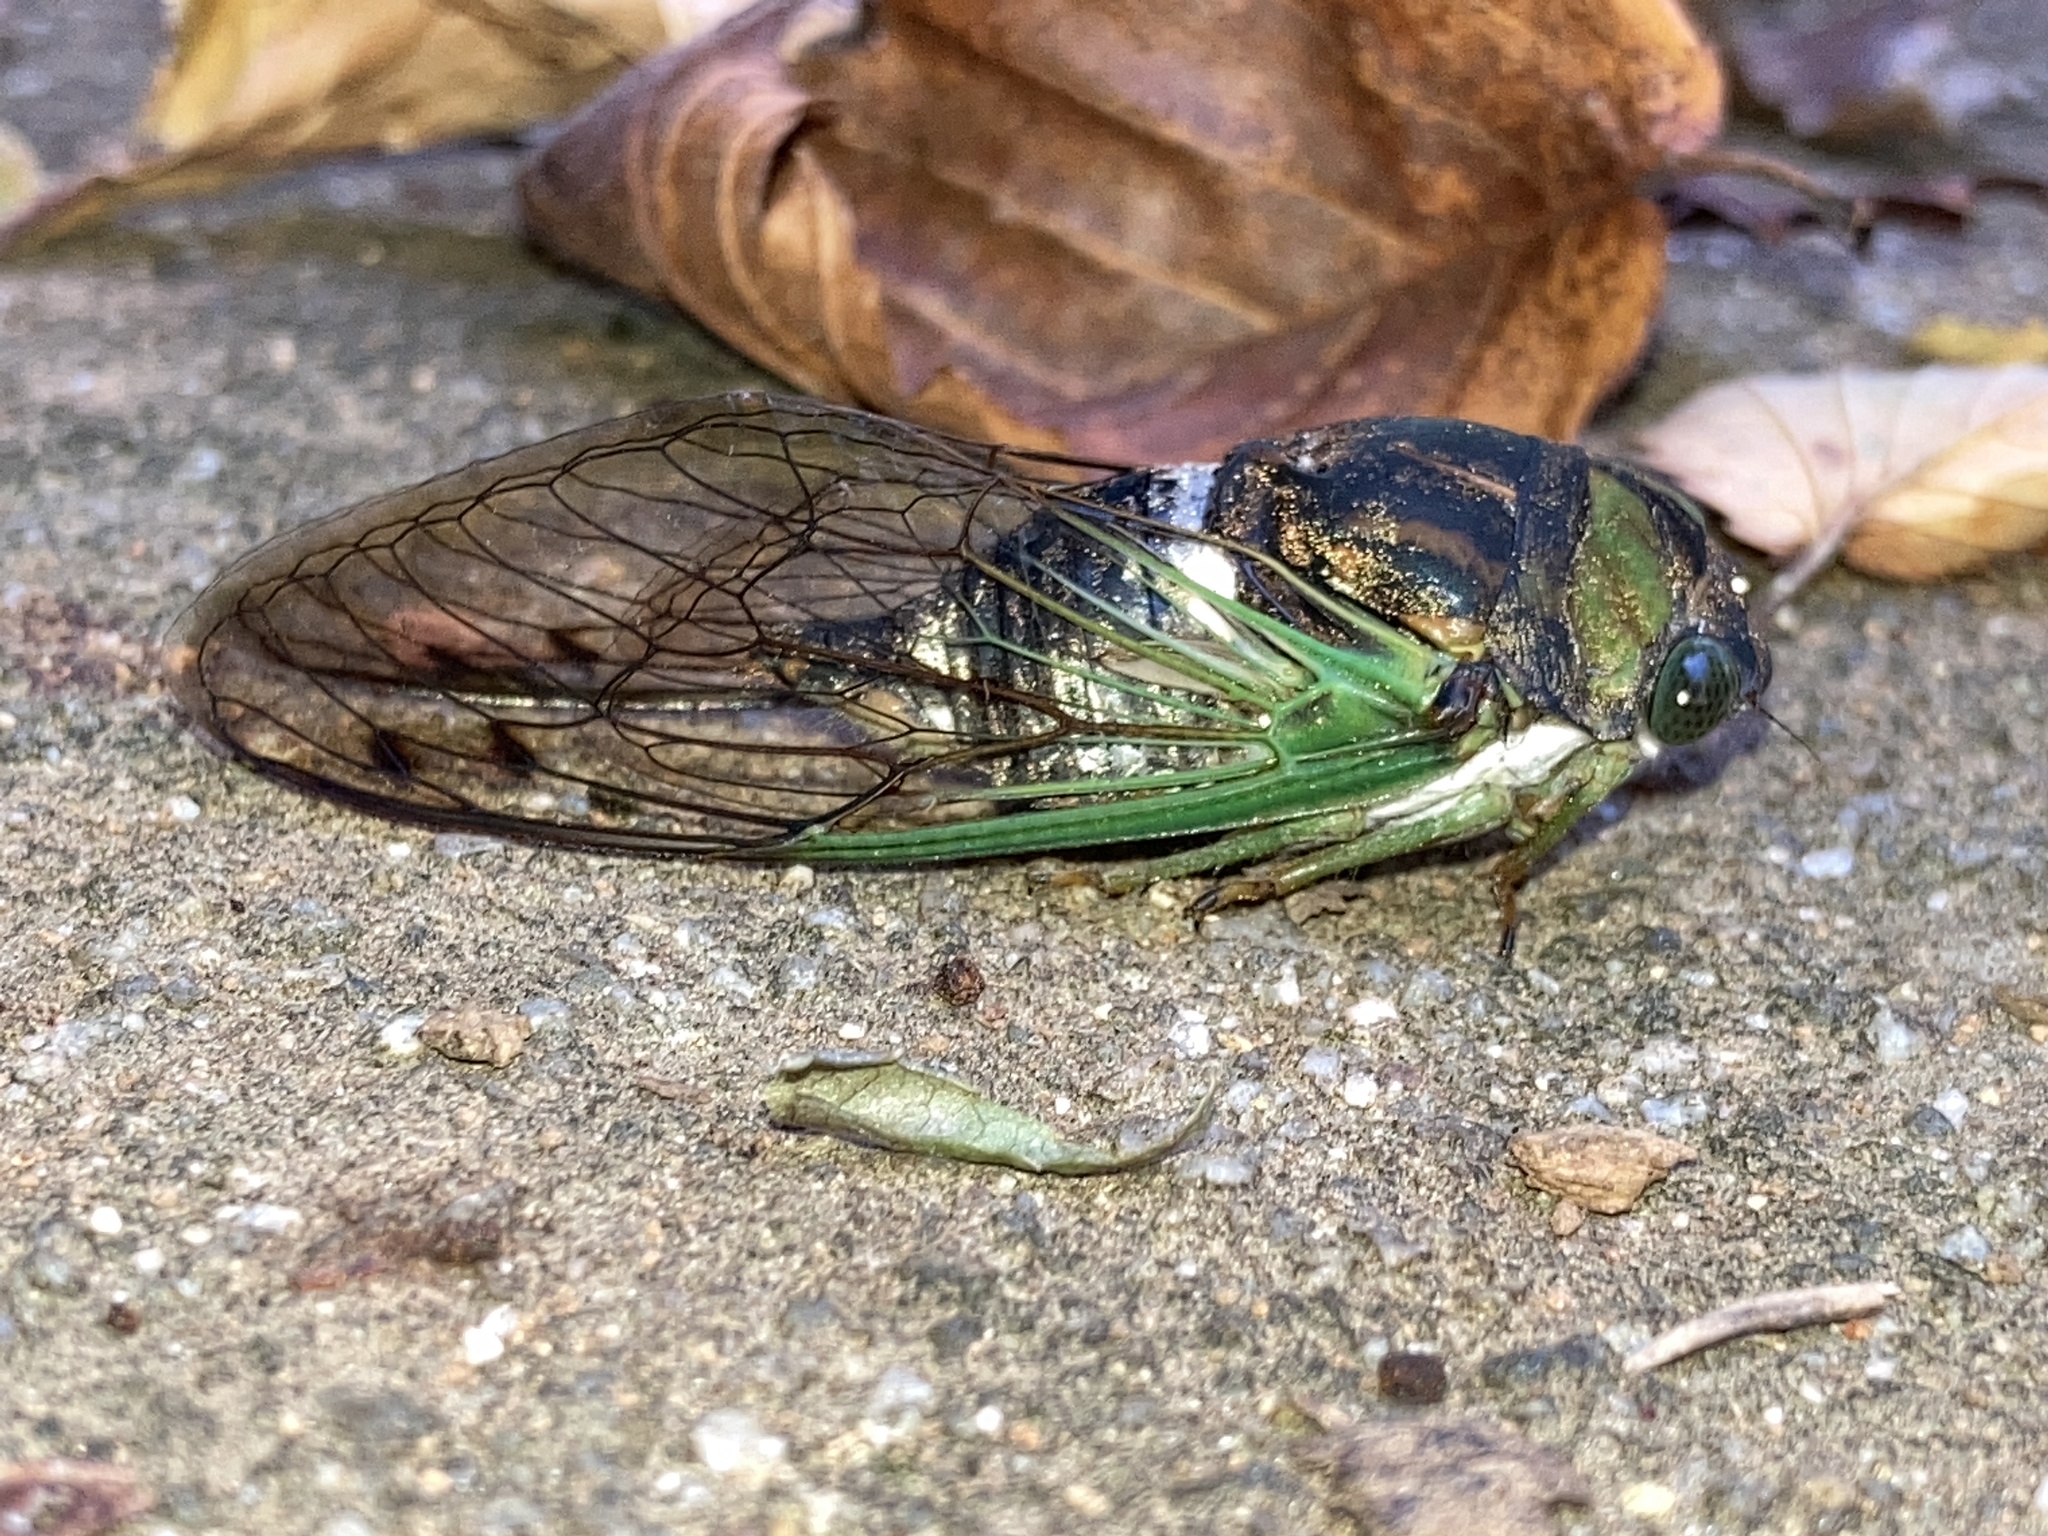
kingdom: Animalia
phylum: Arthropoda
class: Insecta
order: Hemiptera
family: Cicadidae
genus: Neotibicen
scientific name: Neotibicen tibicen
